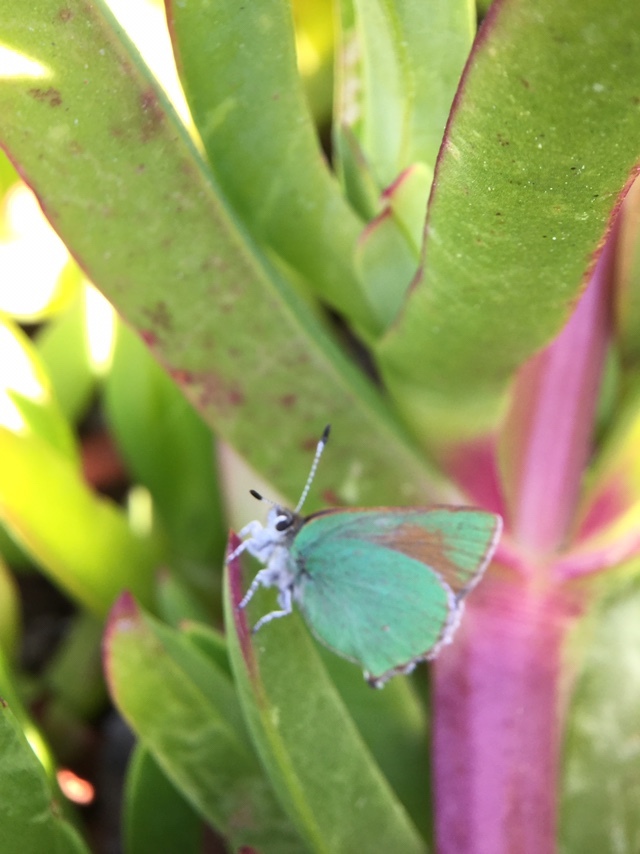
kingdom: Animalia
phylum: Arthropoda
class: Insecta
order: Lepidoptera
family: Lycaenidae
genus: Callophrys
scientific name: Callophrys dumetorum
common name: Bramble hairstreak
